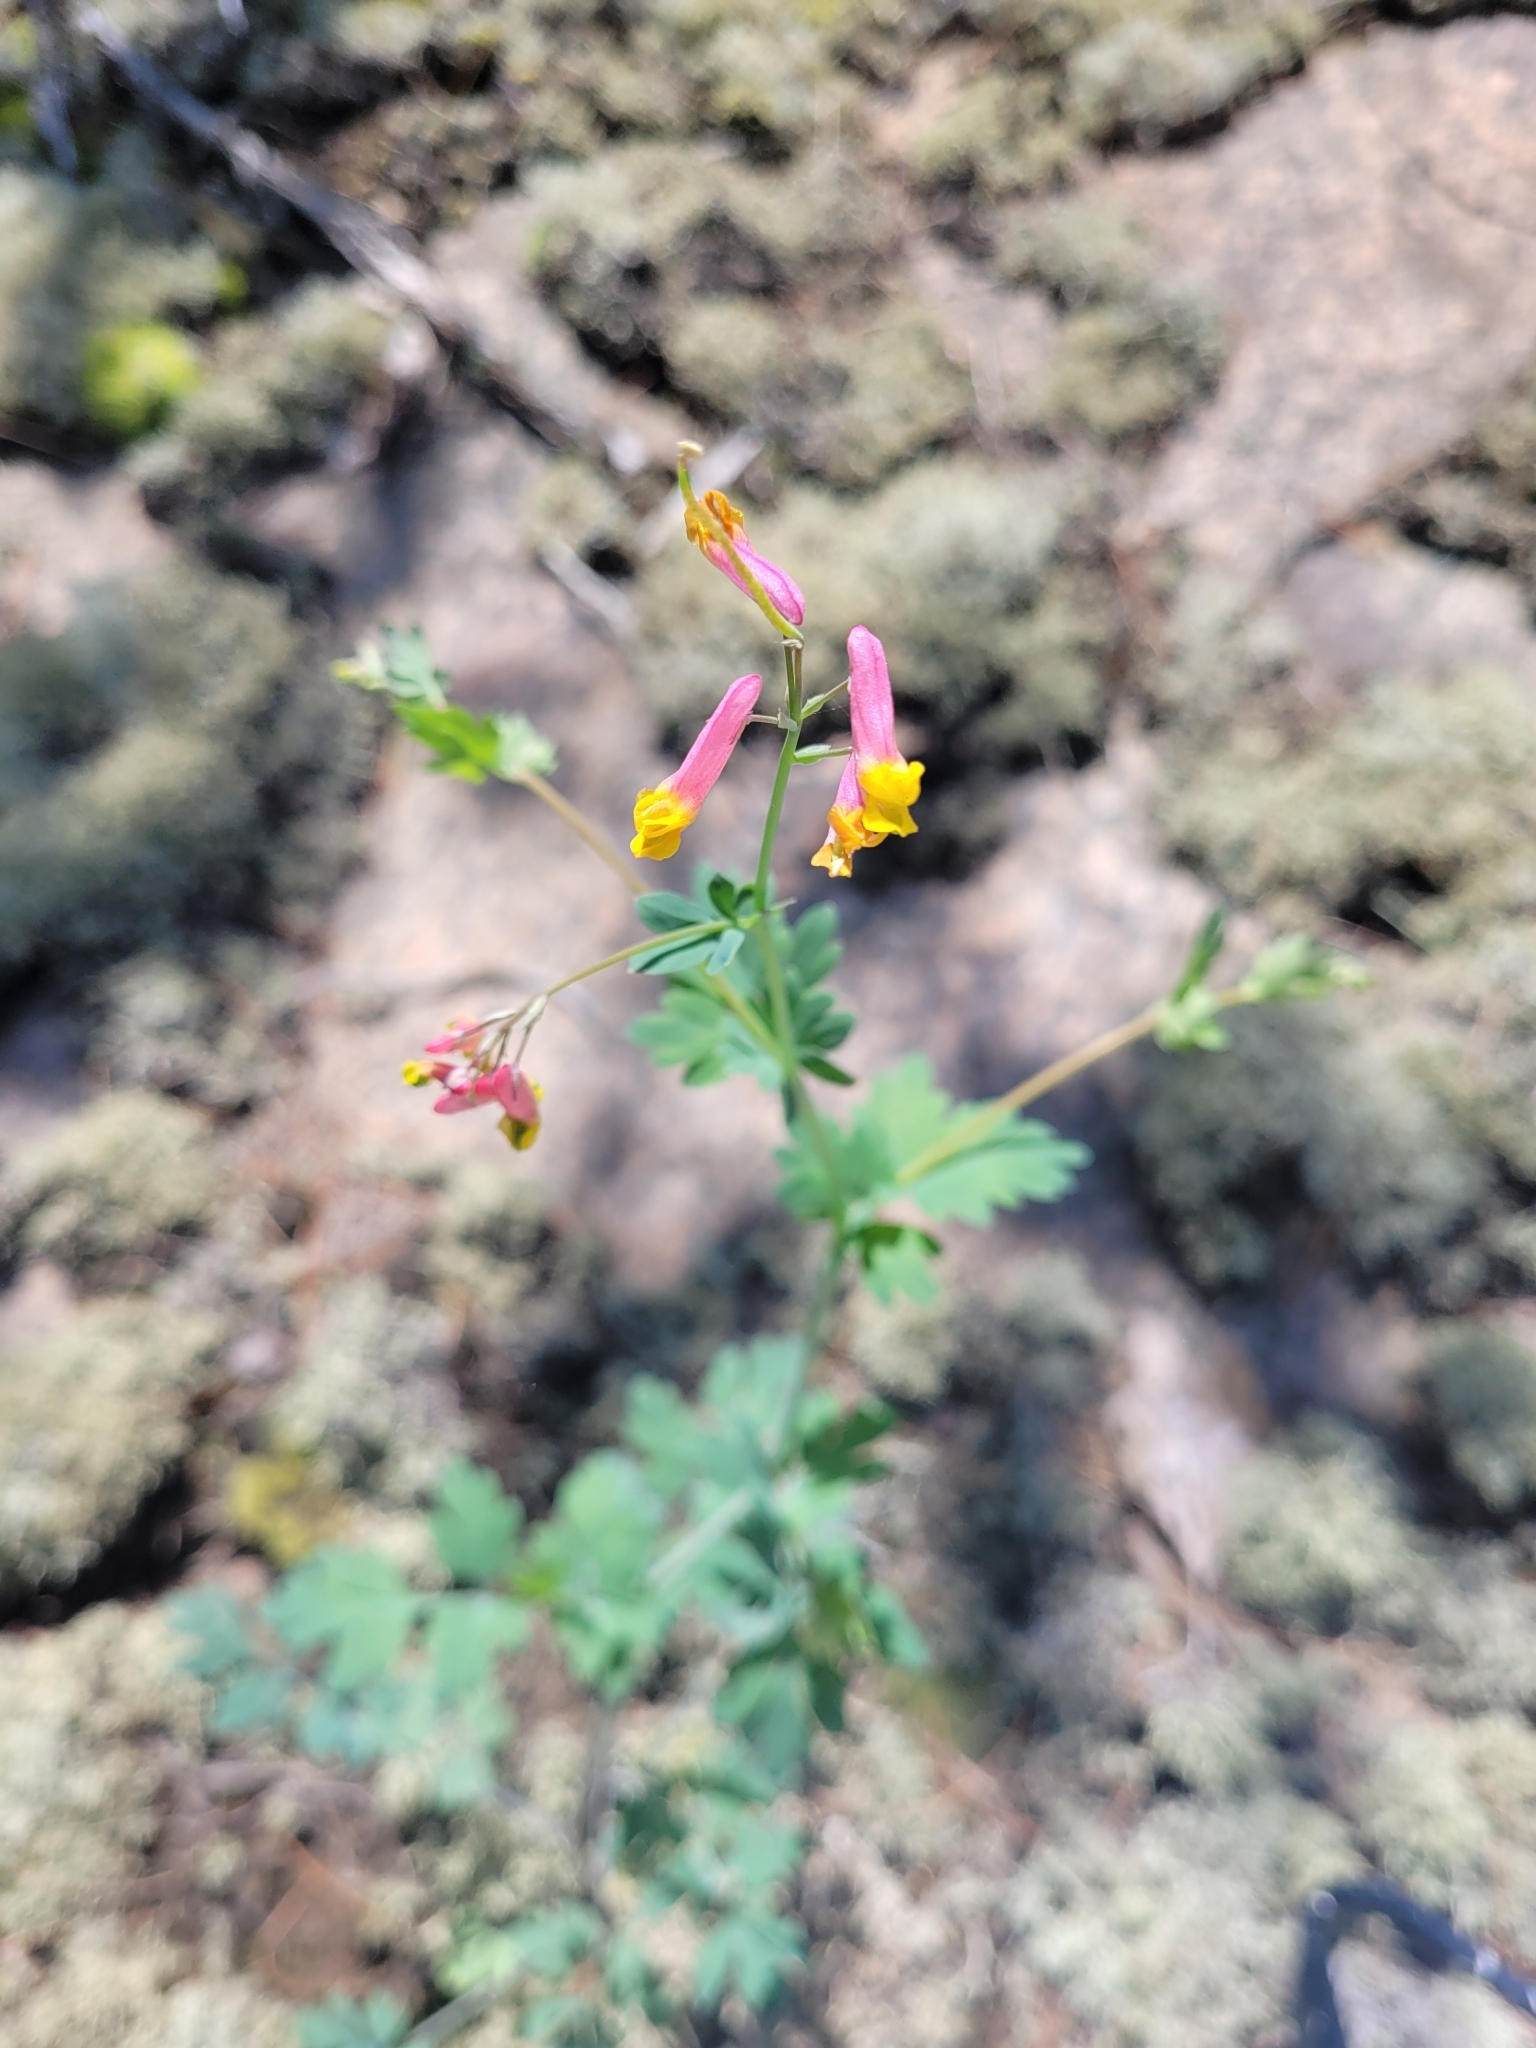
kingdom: Plantae
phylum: Tracheophyta
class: Magnoliopsida
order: Ranunculales
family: Papaveraceae
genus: Capnoides
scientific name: Capnoides sempervirens
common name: Rock harlequin
